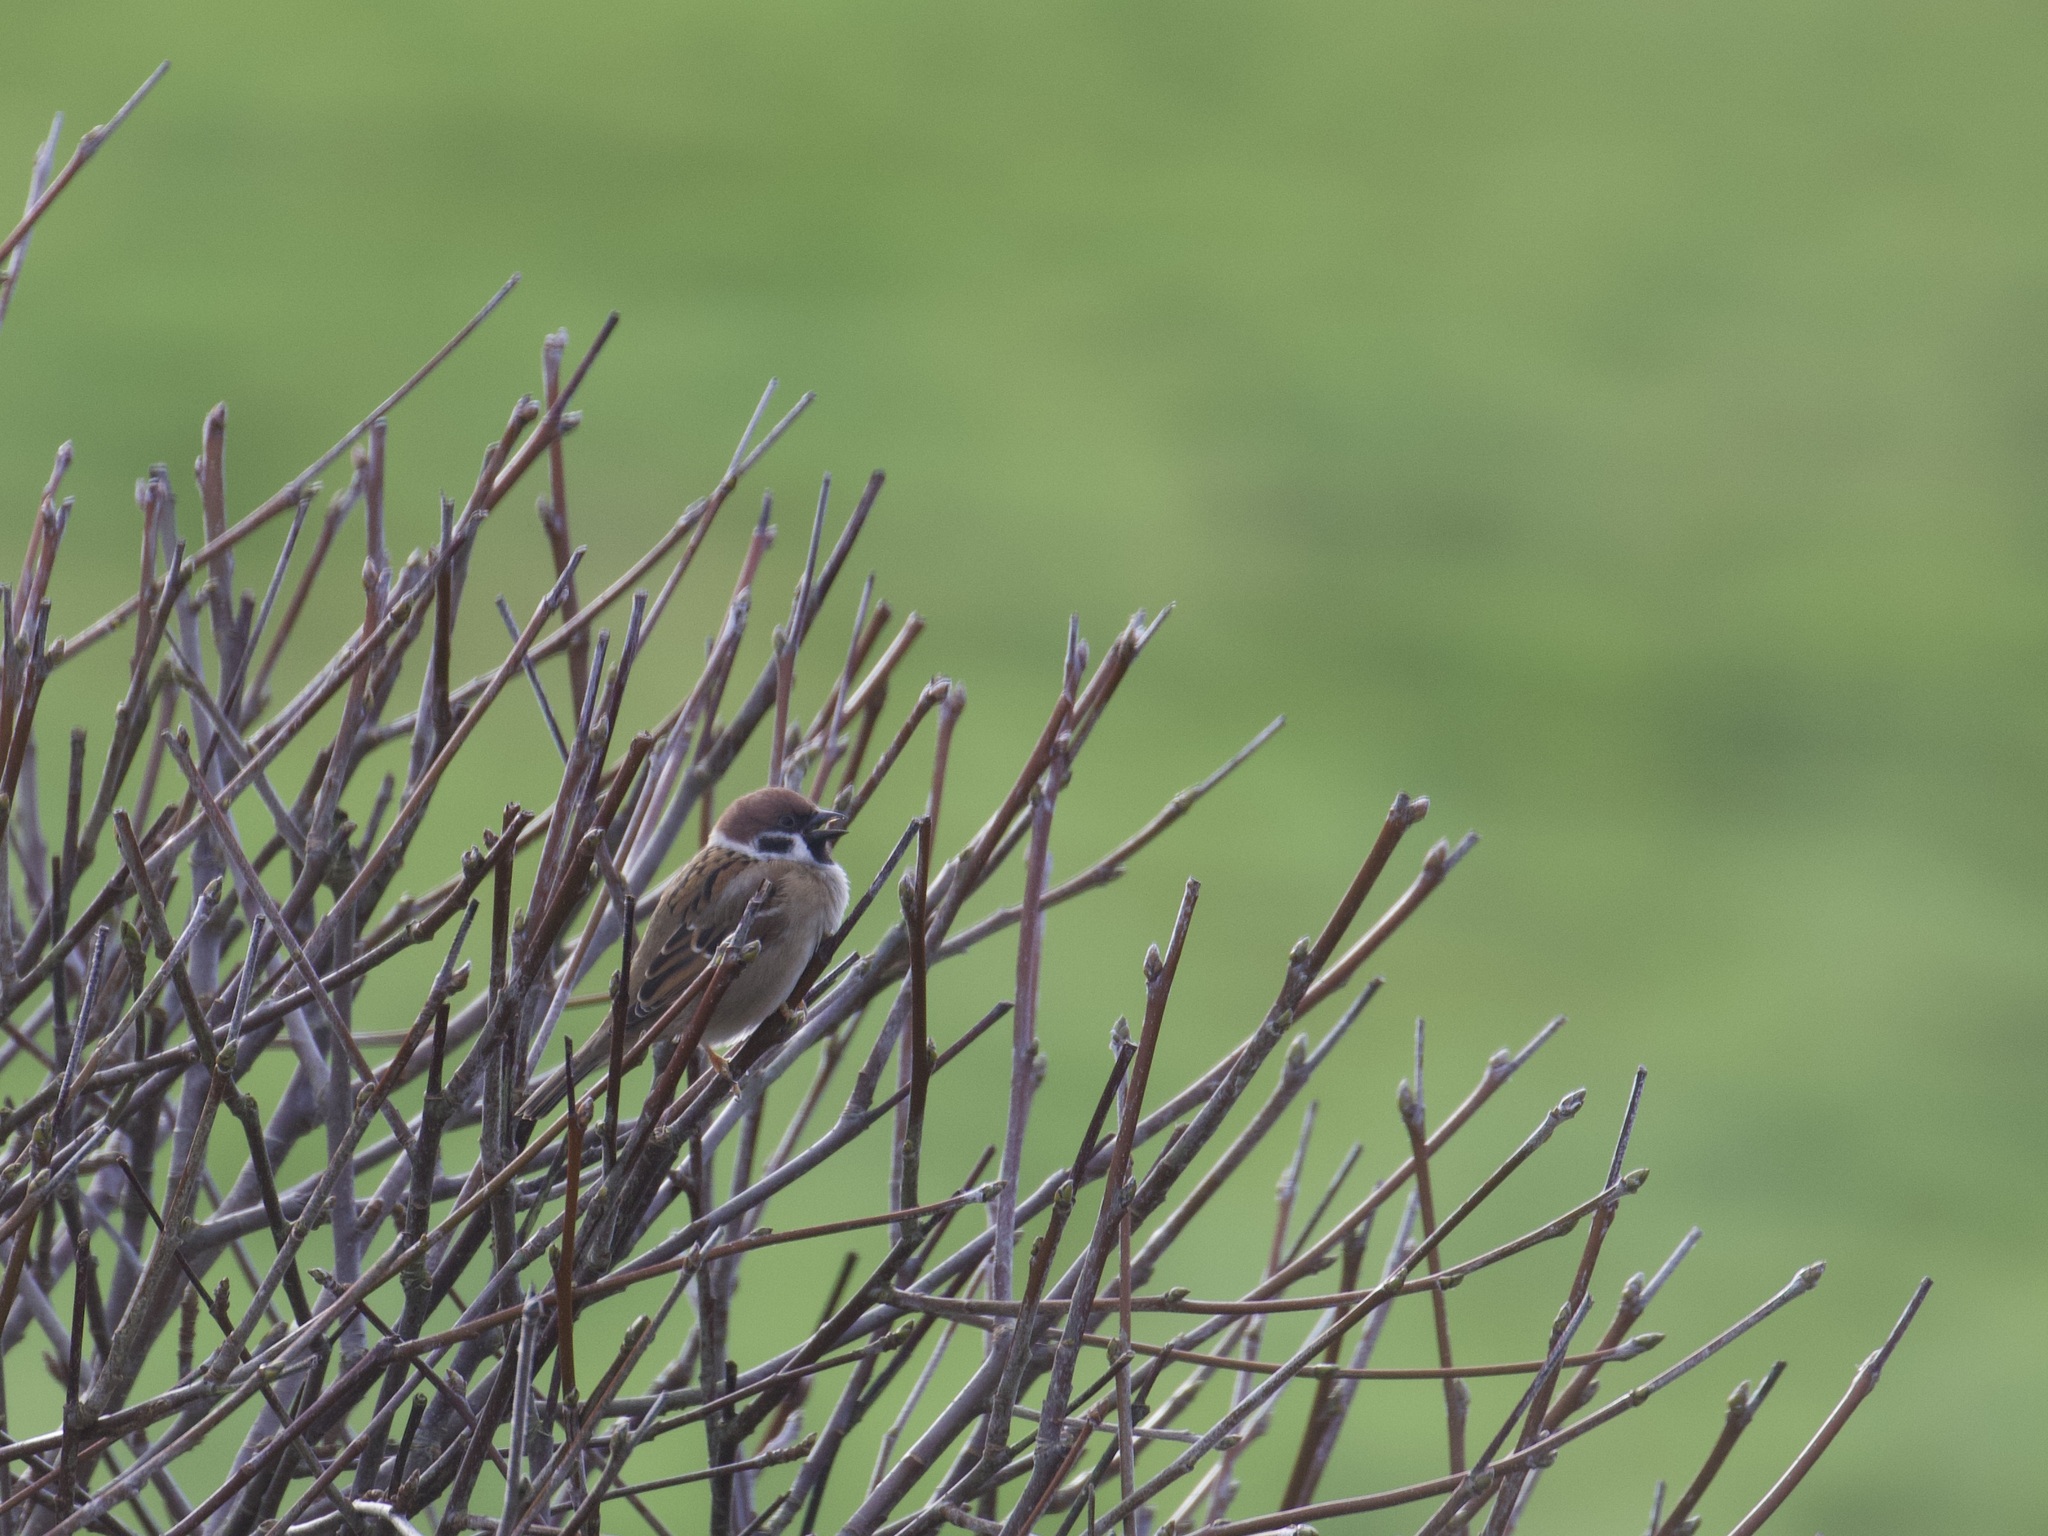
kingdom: Animalia
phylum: Chordata
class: Aves
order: Passeriformes
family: Passeridae
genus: Passer
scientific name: Passer montanus
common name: Eurasian tree sparrow
